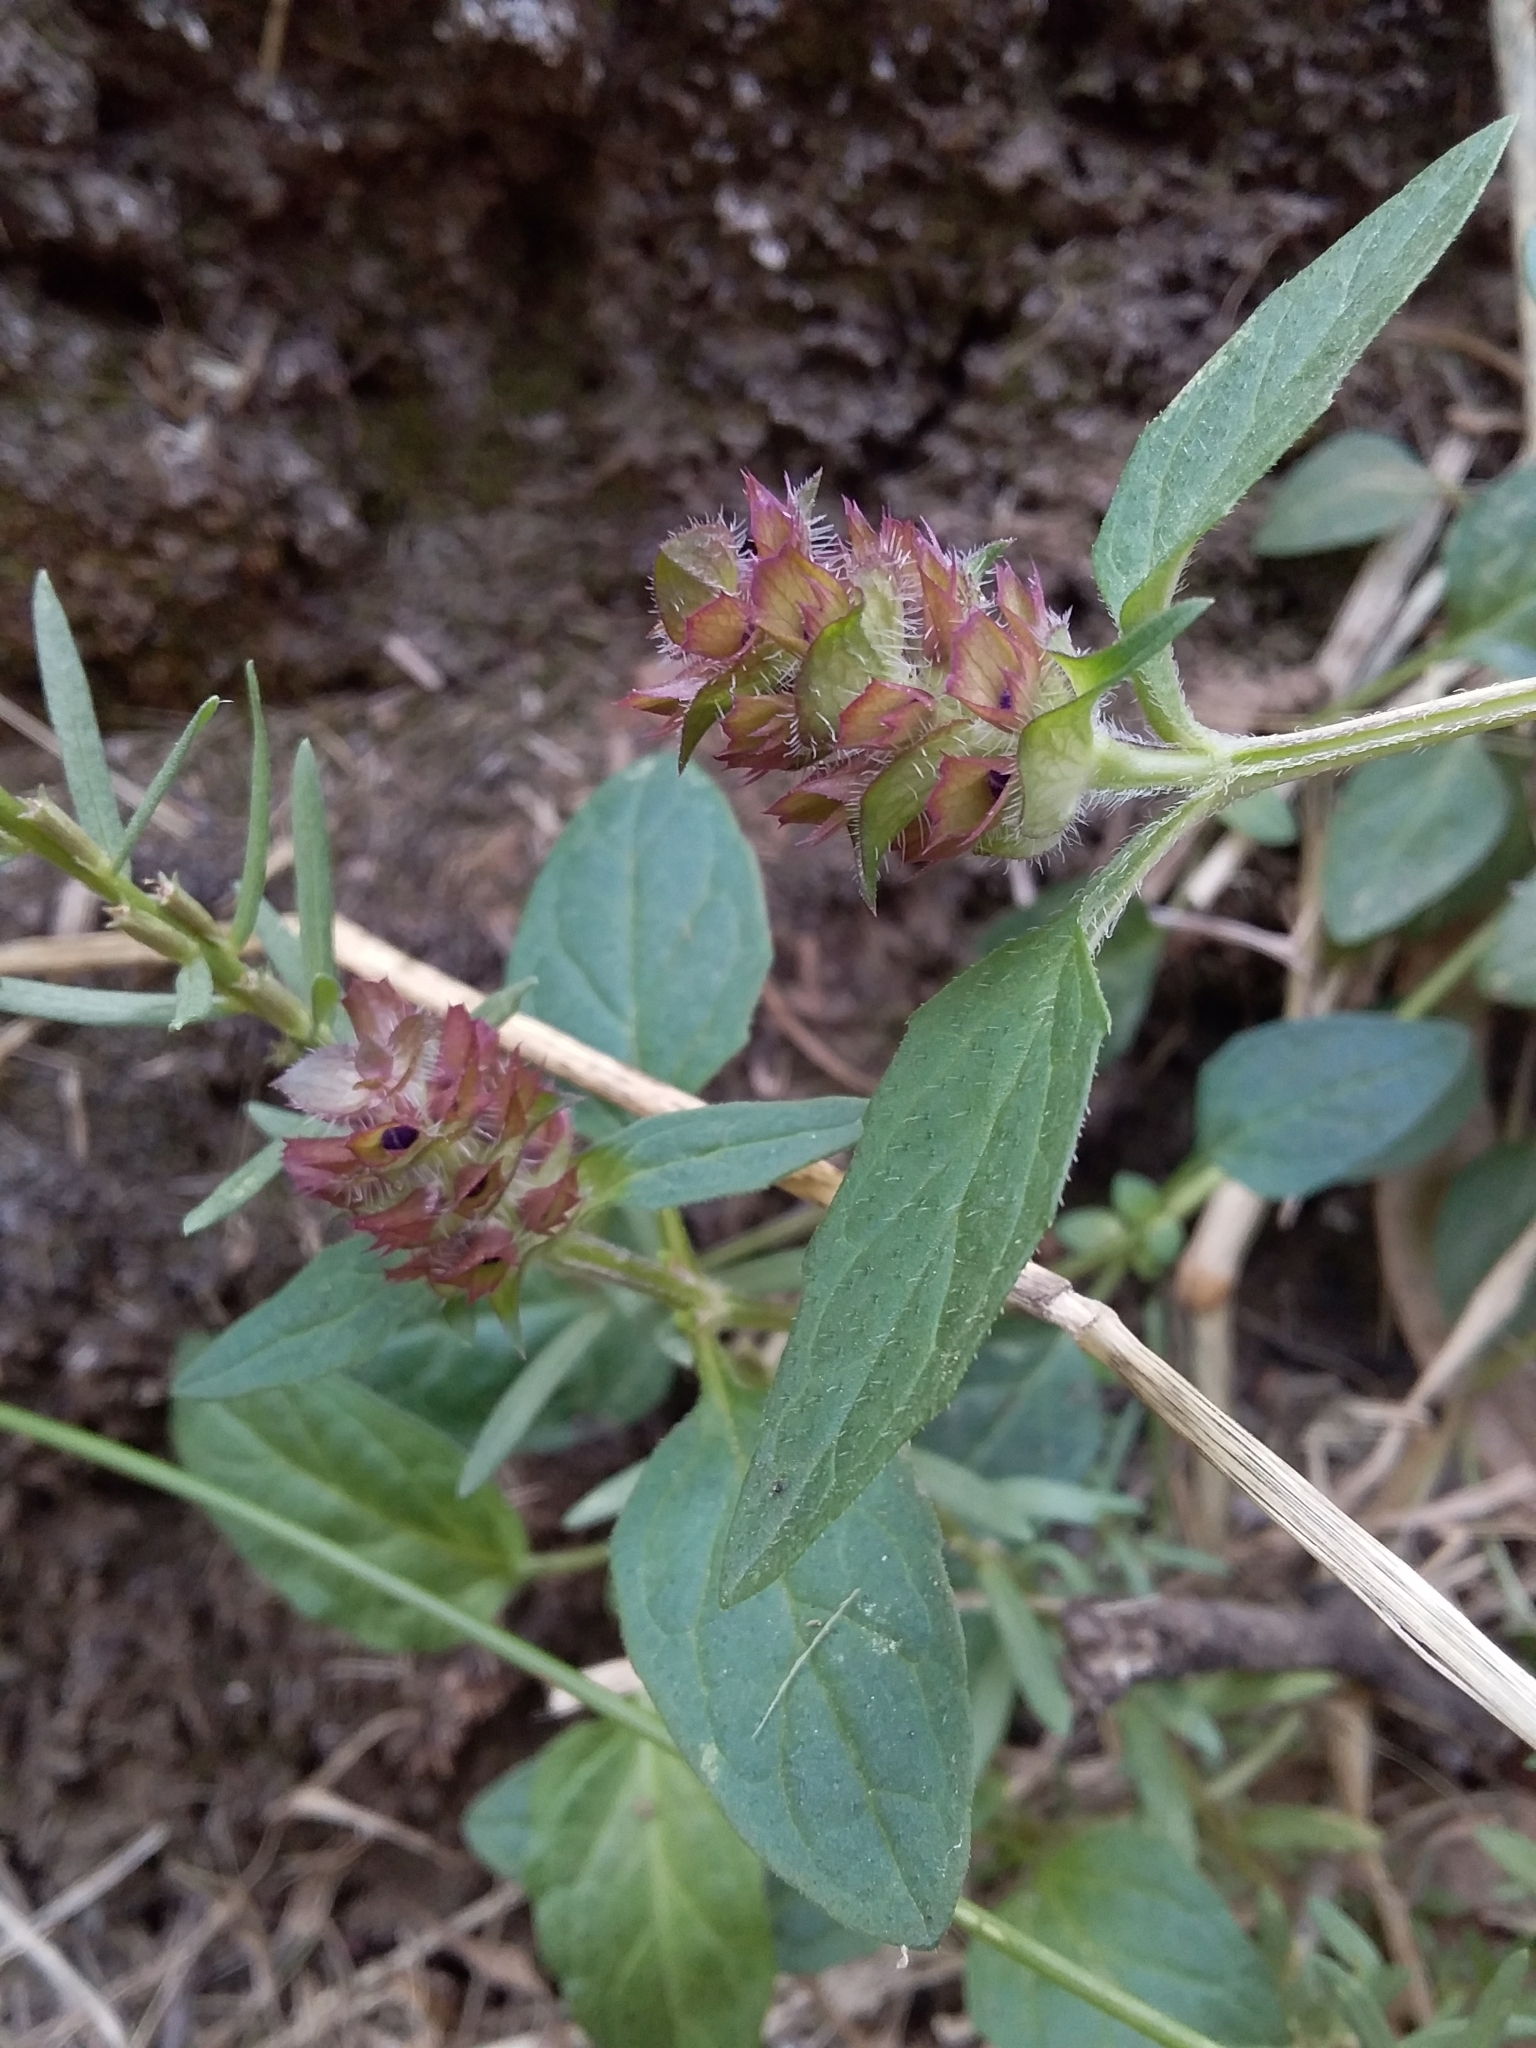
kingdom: Plantae
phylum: Tracheophyta
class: Magnoliopsida
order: Lamiales
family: Lamiaceae
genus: Prunella
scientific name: Prunella vulgaris
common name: Heal-all
